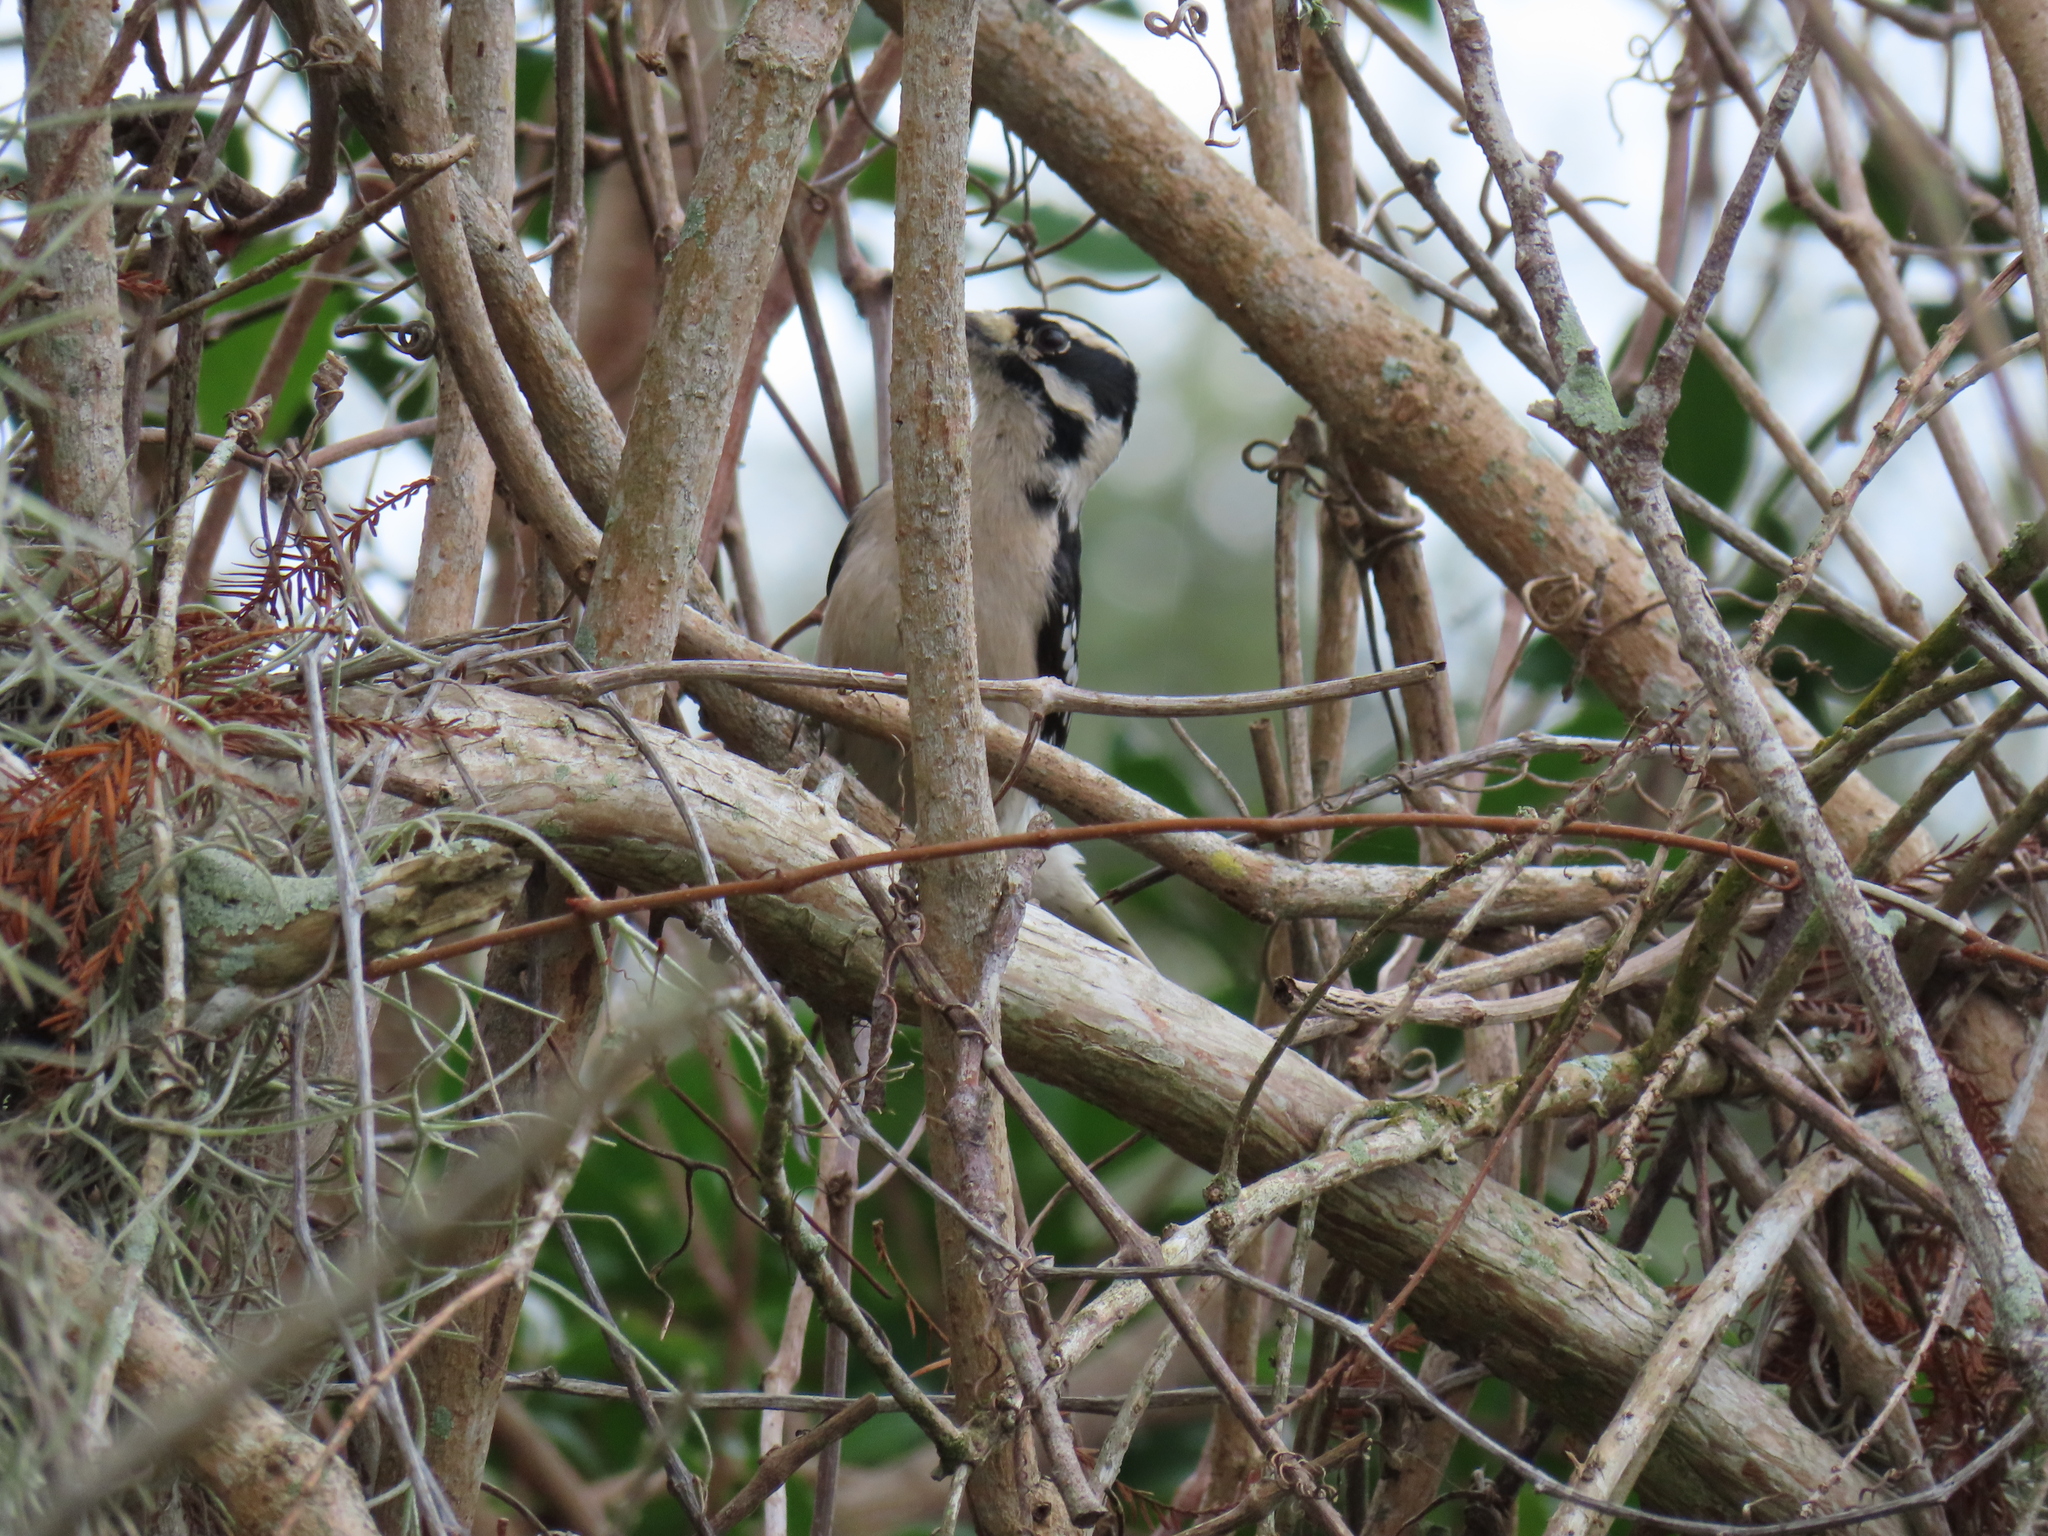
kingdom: Animalia
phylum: Chordata
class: Aves
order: Piciformes
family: Picidae
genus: Dryobates
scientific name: Dryobates pubescens
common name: Downy woodpecker
